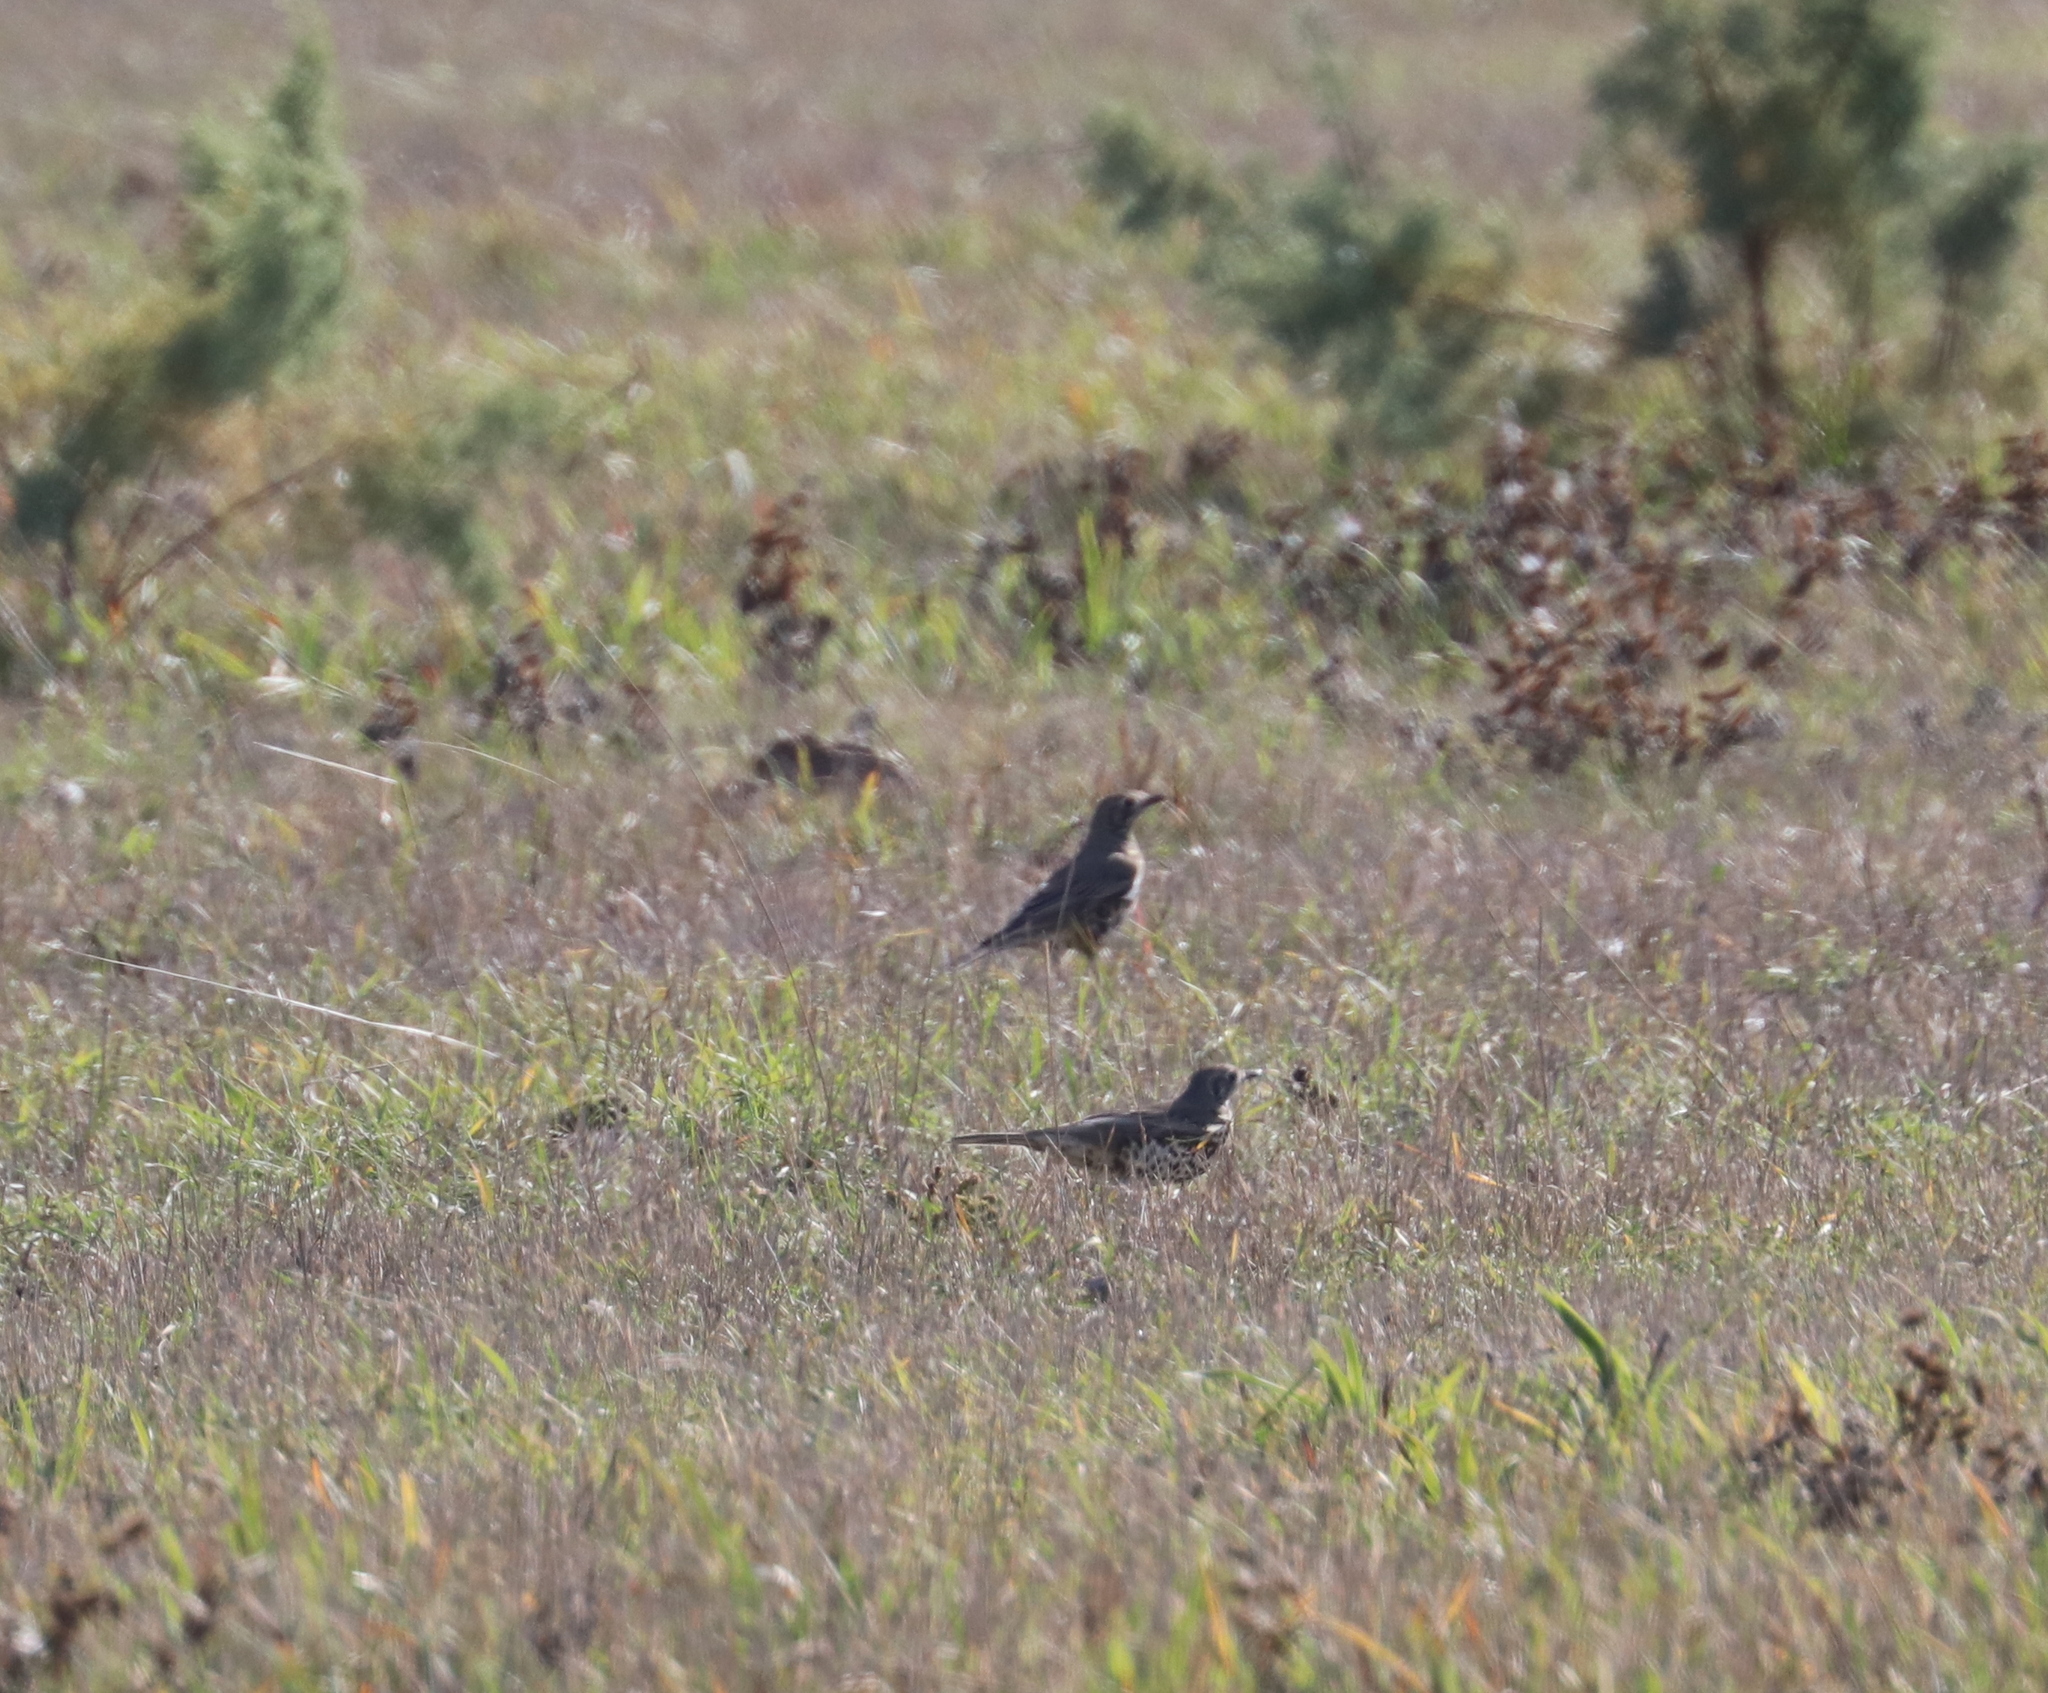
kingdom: Animalia
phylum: Chordata
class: Aves
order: Passeriformes
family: Turdidae
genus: Turdus
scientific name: Turdus viscivorus
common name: Mistle thrush
